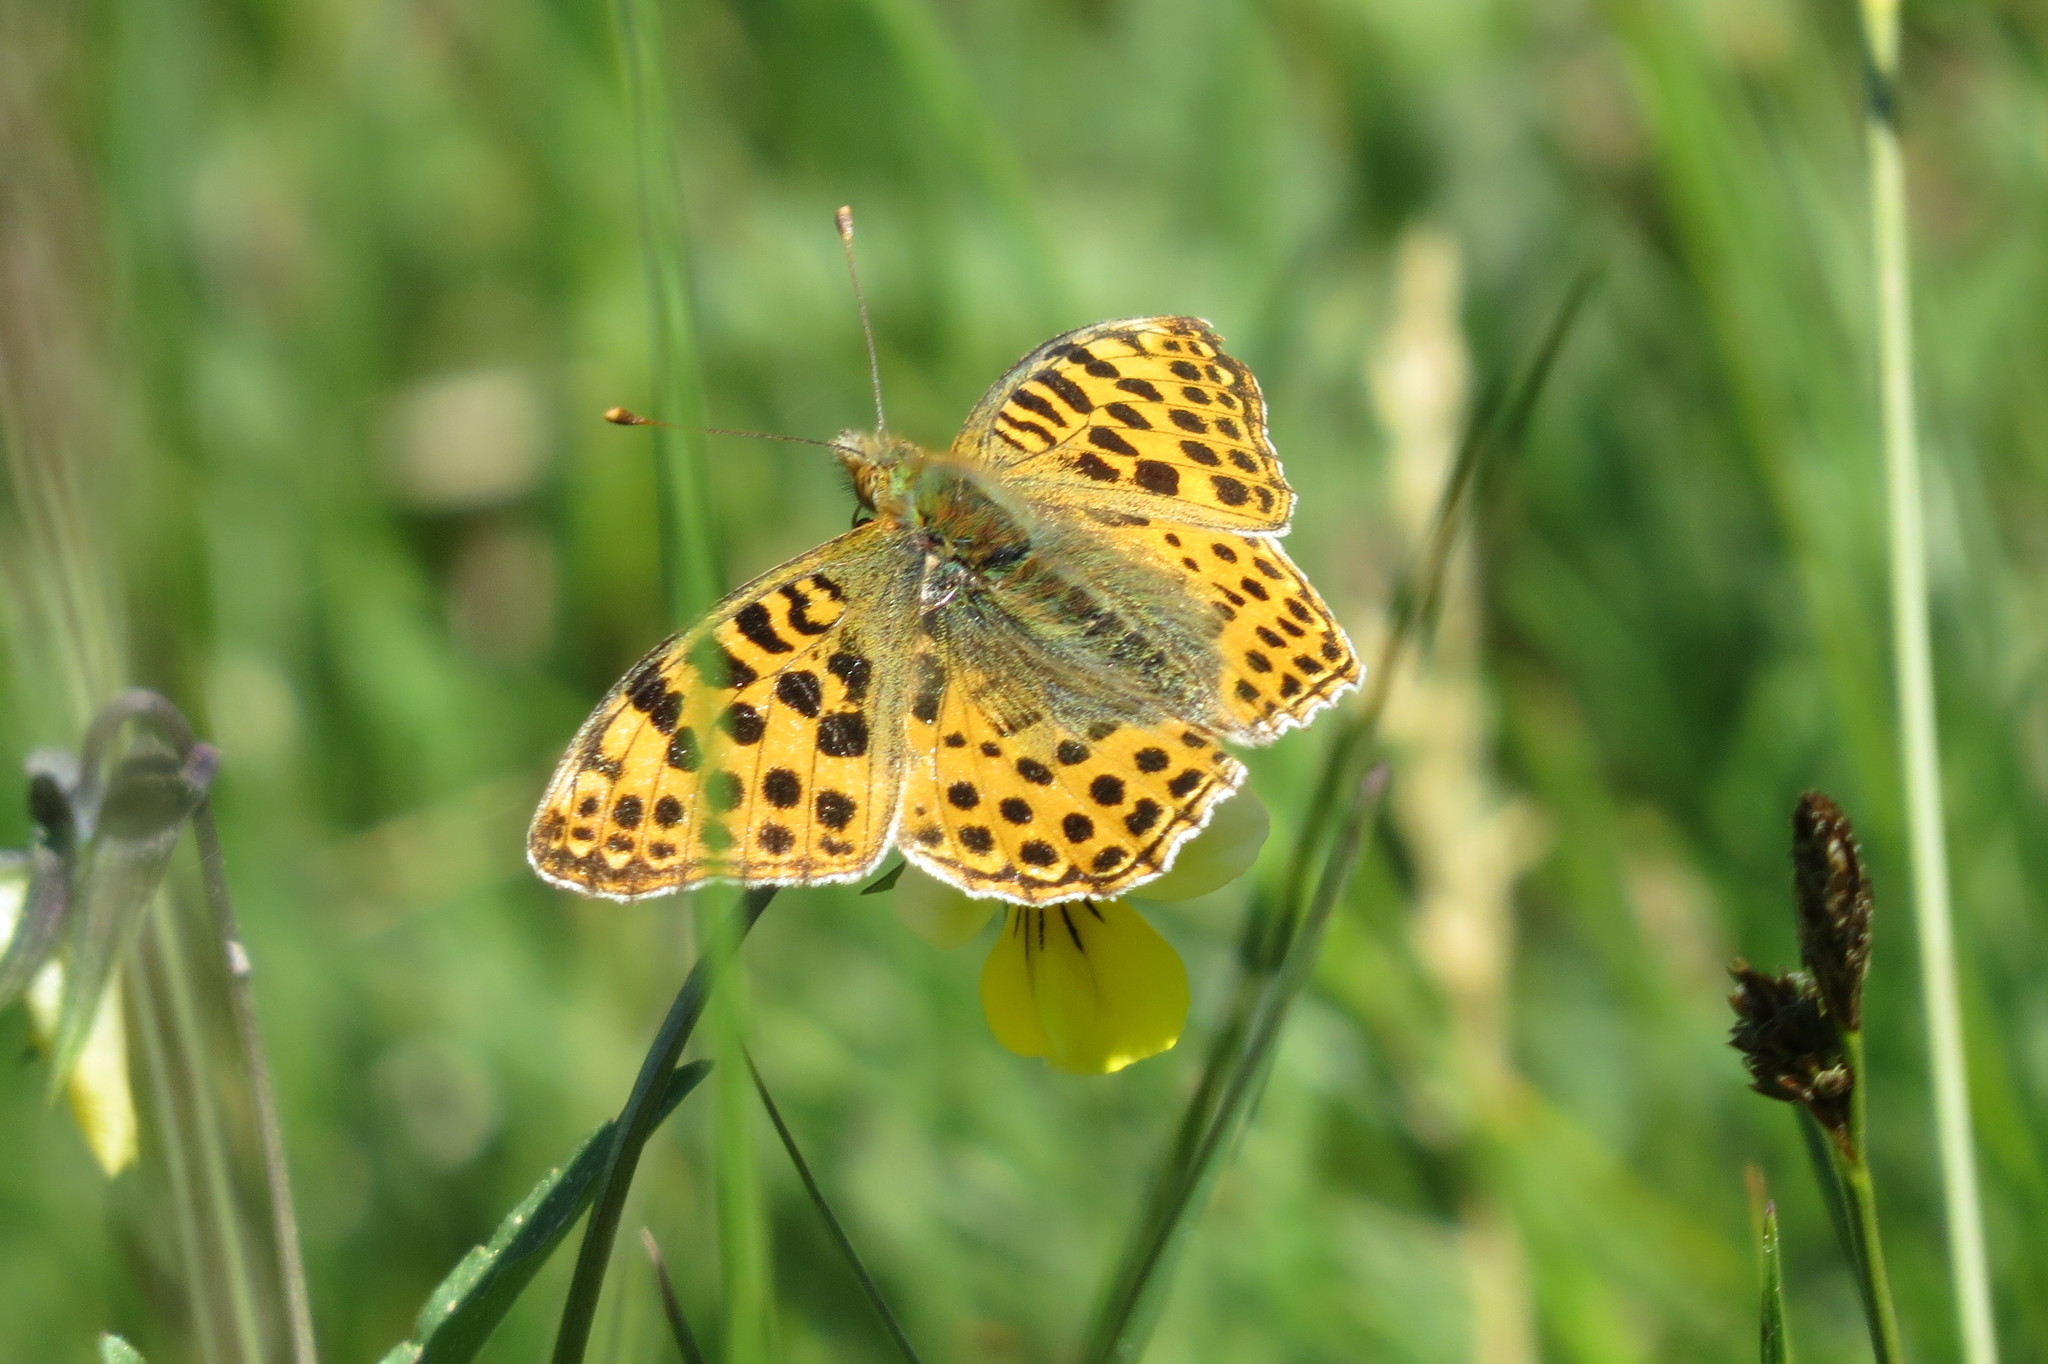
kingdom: Animalia
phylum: Arthropoda
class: Insecta
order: Lepidoptera
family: Nymphalidae
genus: Issoria
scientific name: Issoria lathonia
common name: Queen of spain fritillary
